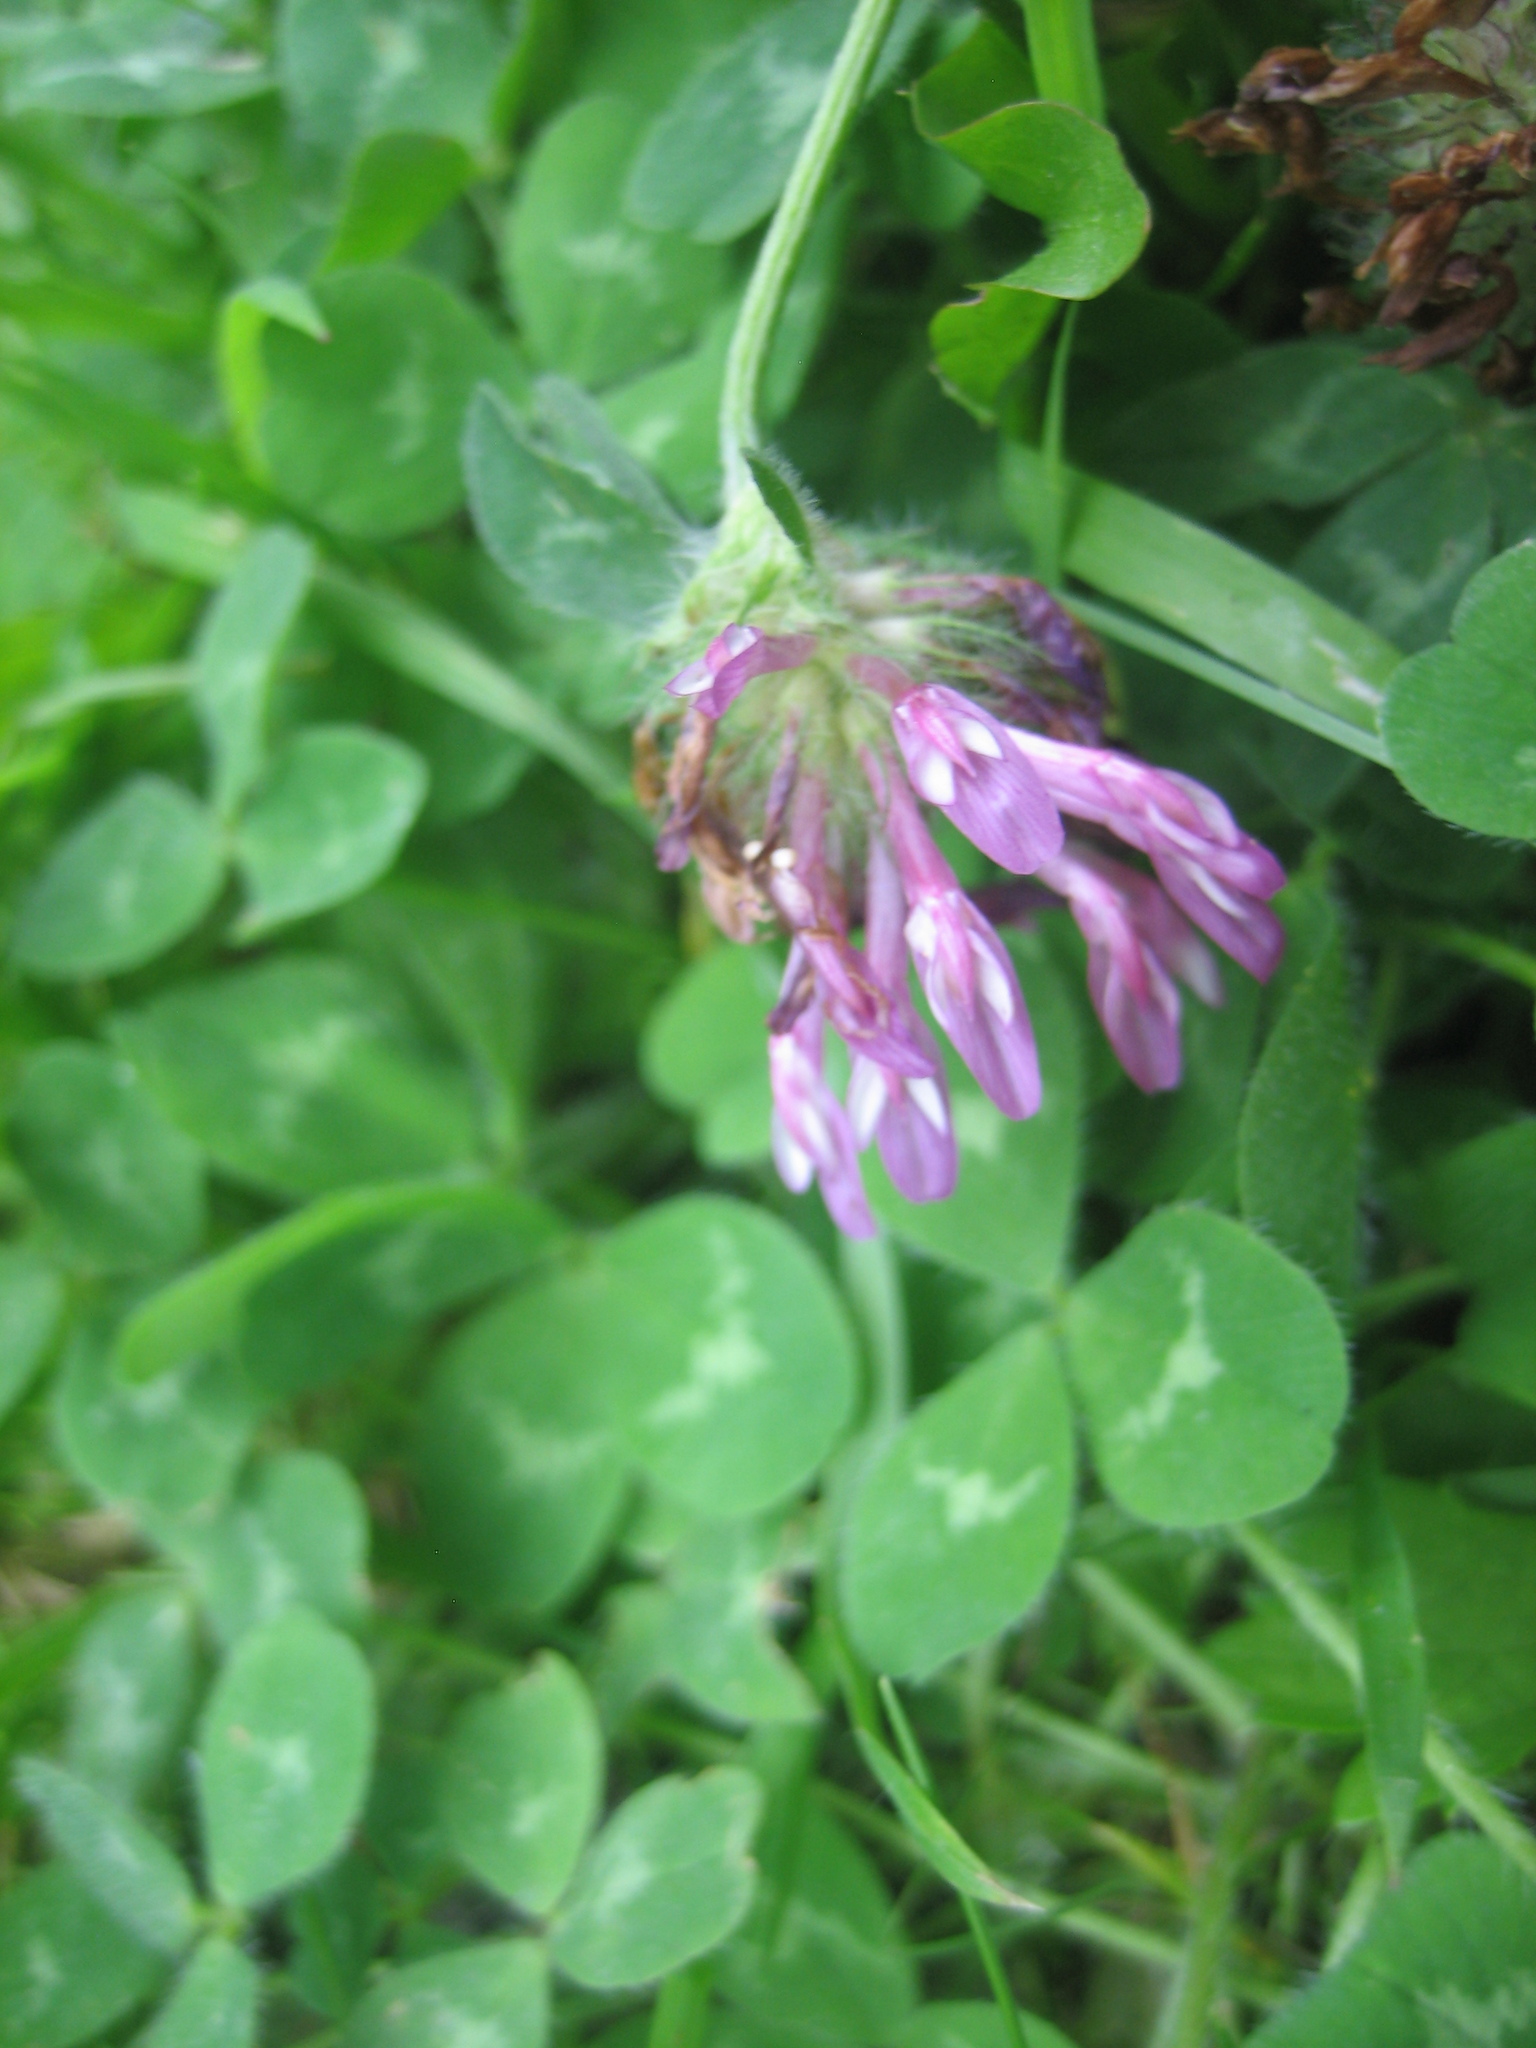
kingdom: Plantae
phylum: Tracheophyta
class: Magnoliopsida
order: Fabales
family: Fabaceae
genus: Trifolium
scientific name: Trifolium pratense
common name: Red clover
